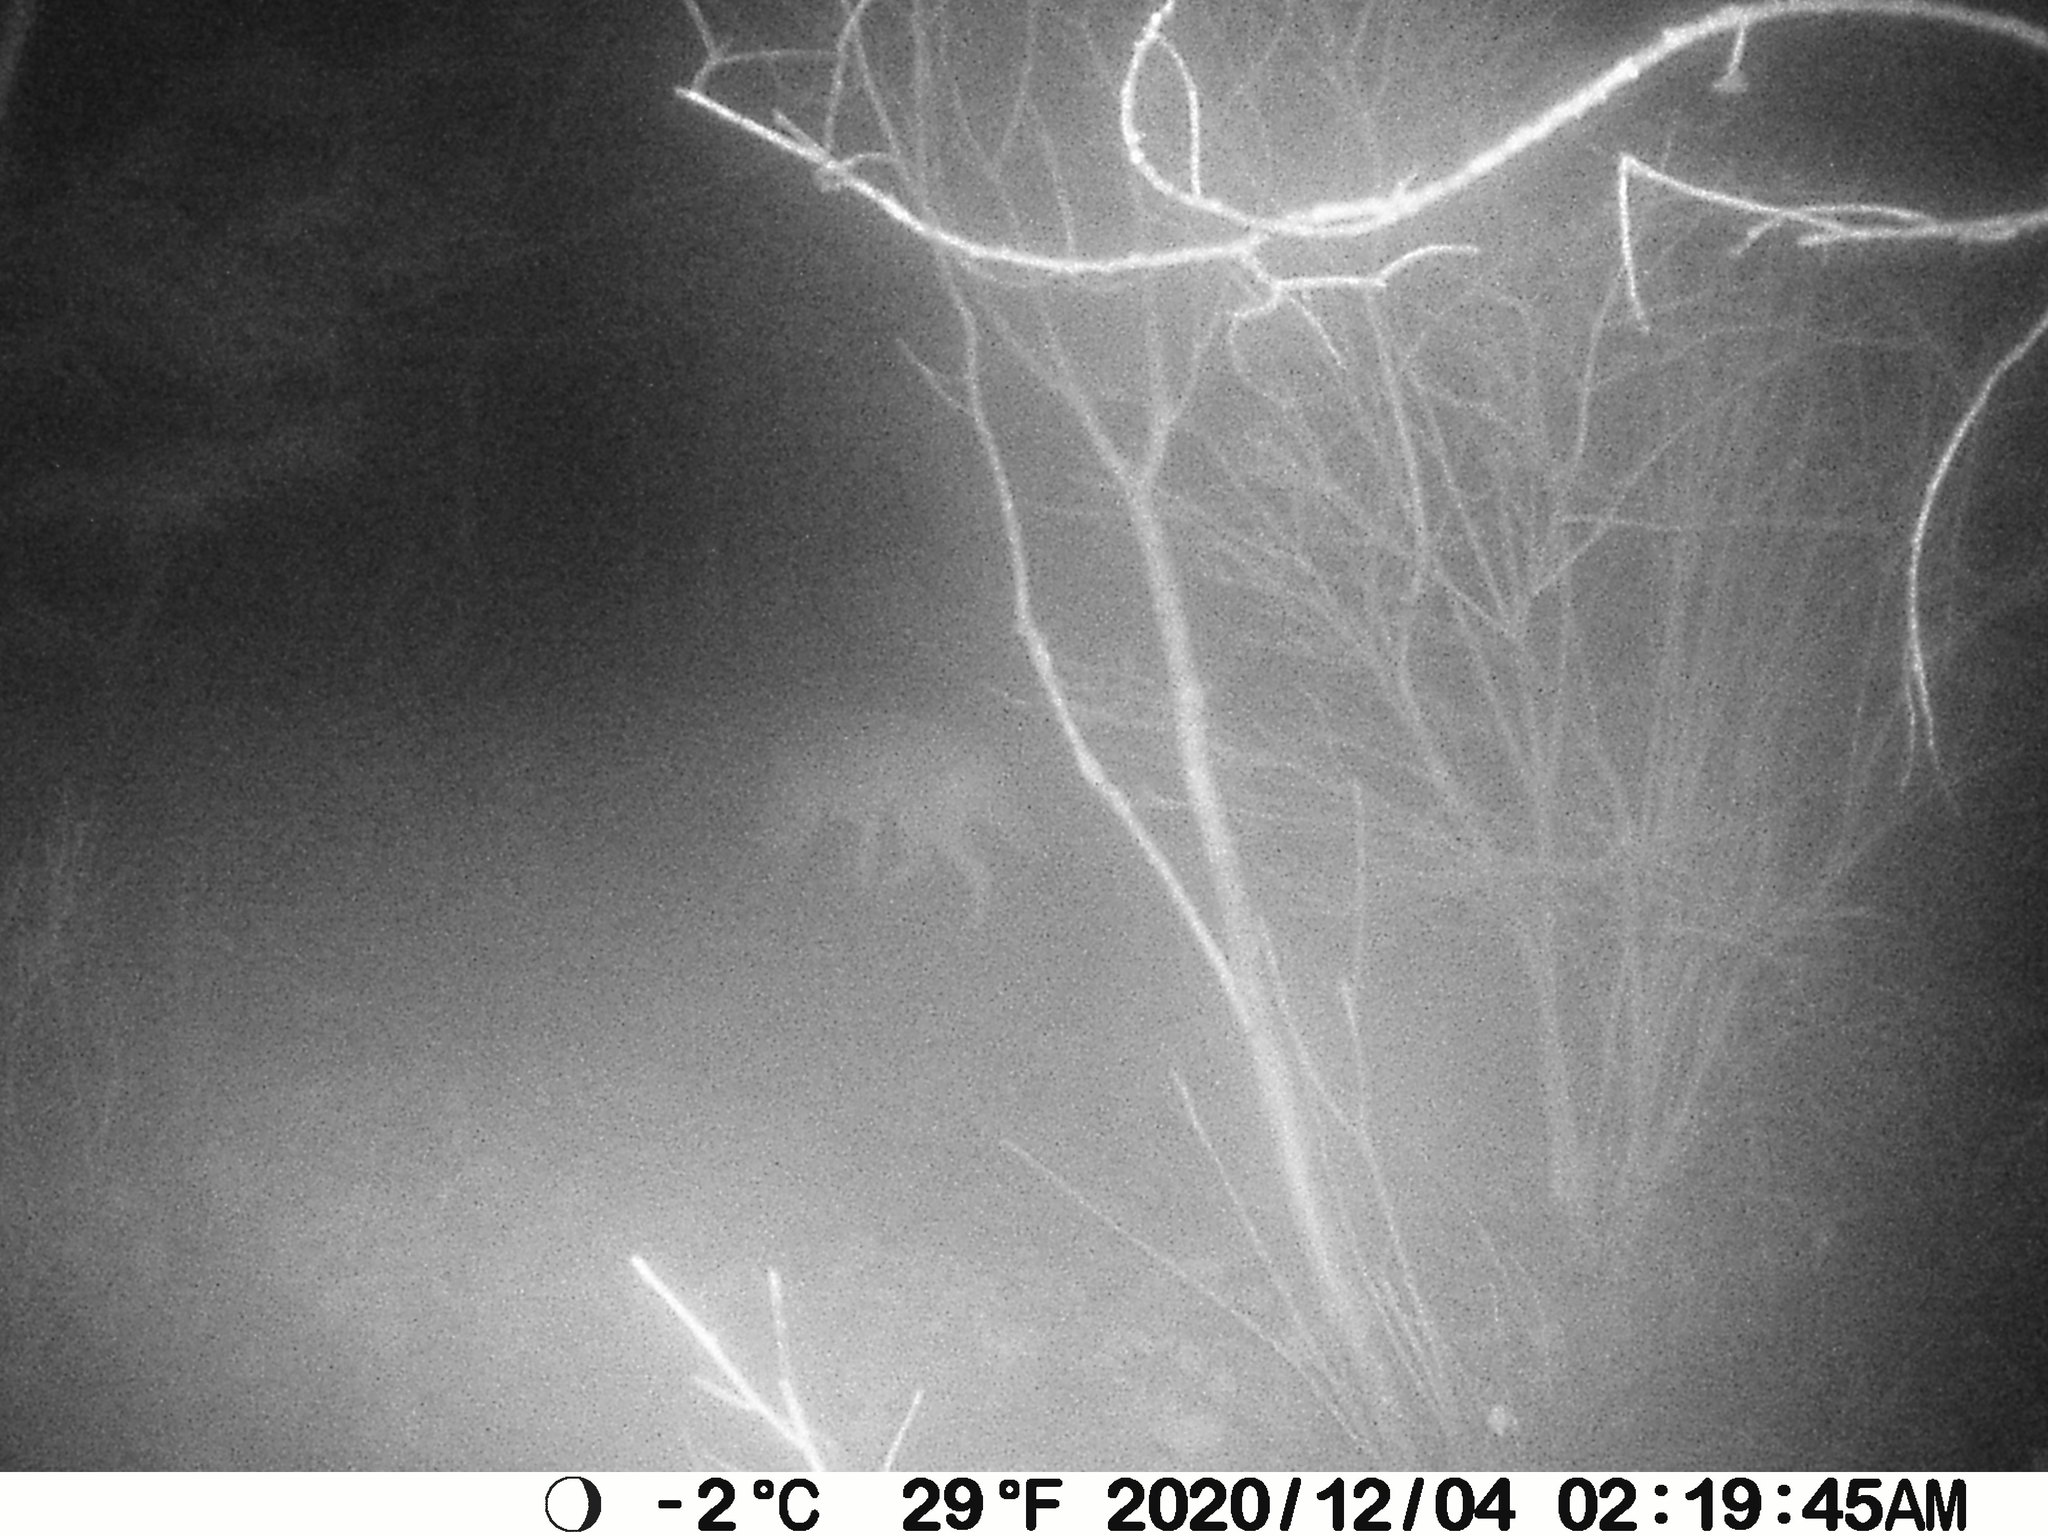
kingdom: Animalia
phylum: Chordata
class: Mammalia
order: Carnivora
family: Canidae
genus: Canis
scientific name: Canis latrans
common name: Coyote
